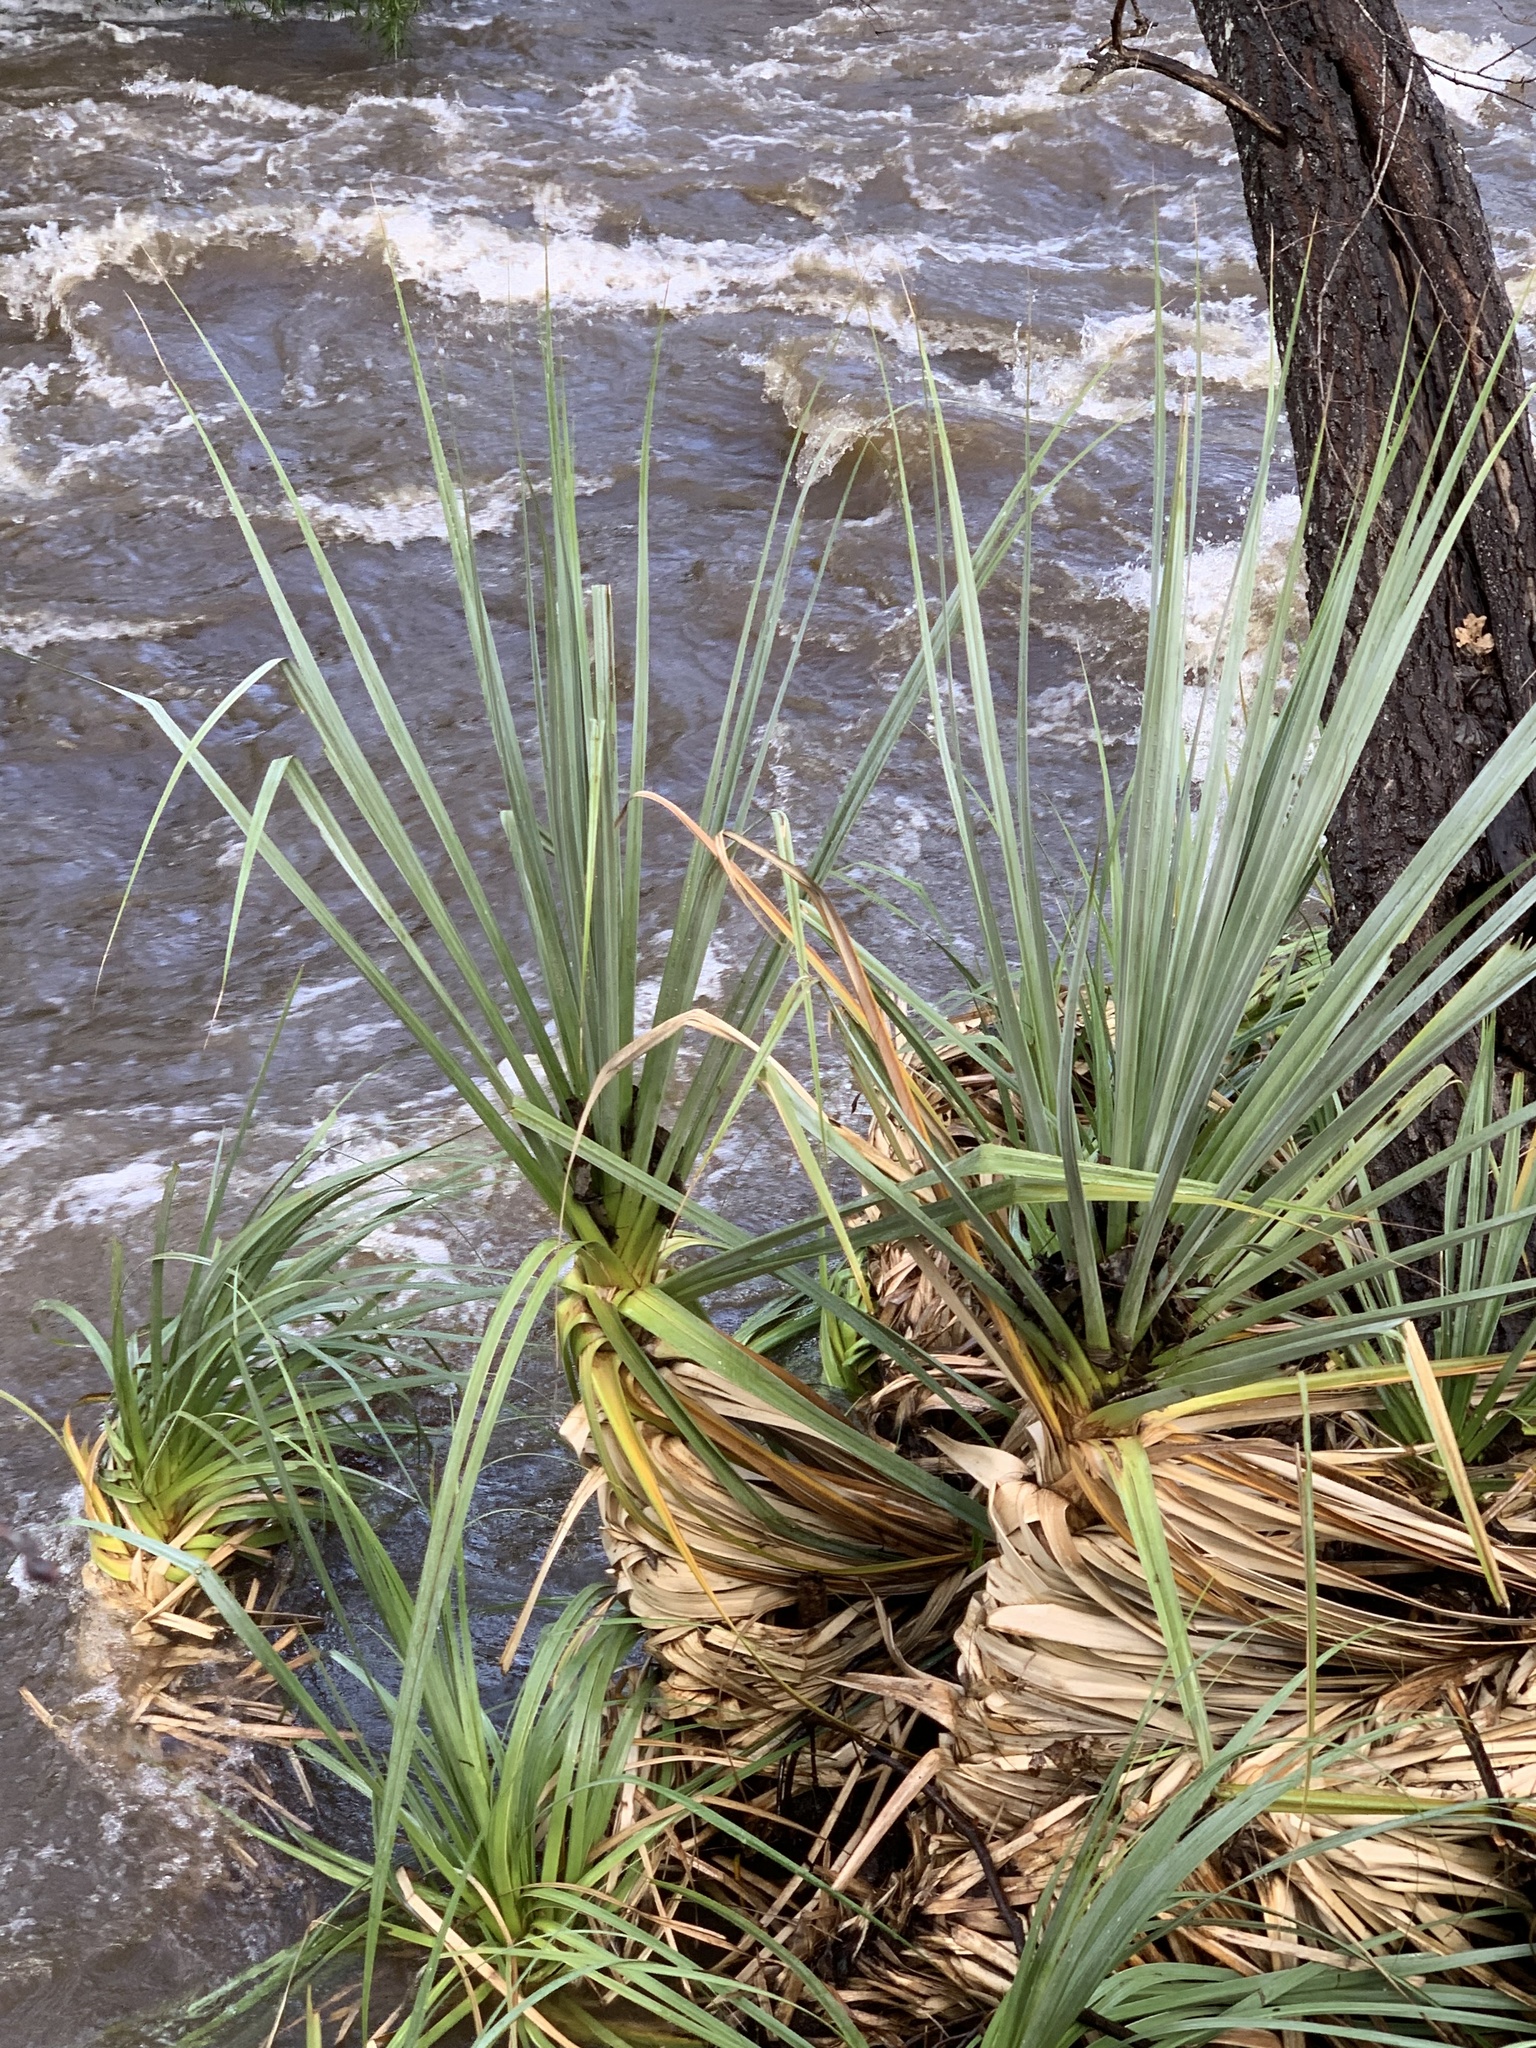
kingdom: Plantae
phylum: Tracheophyta
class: Liliopsida
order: Poales
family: Thurniaceae
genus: Prionium
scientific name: Prionium serratum
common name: Palmiet
